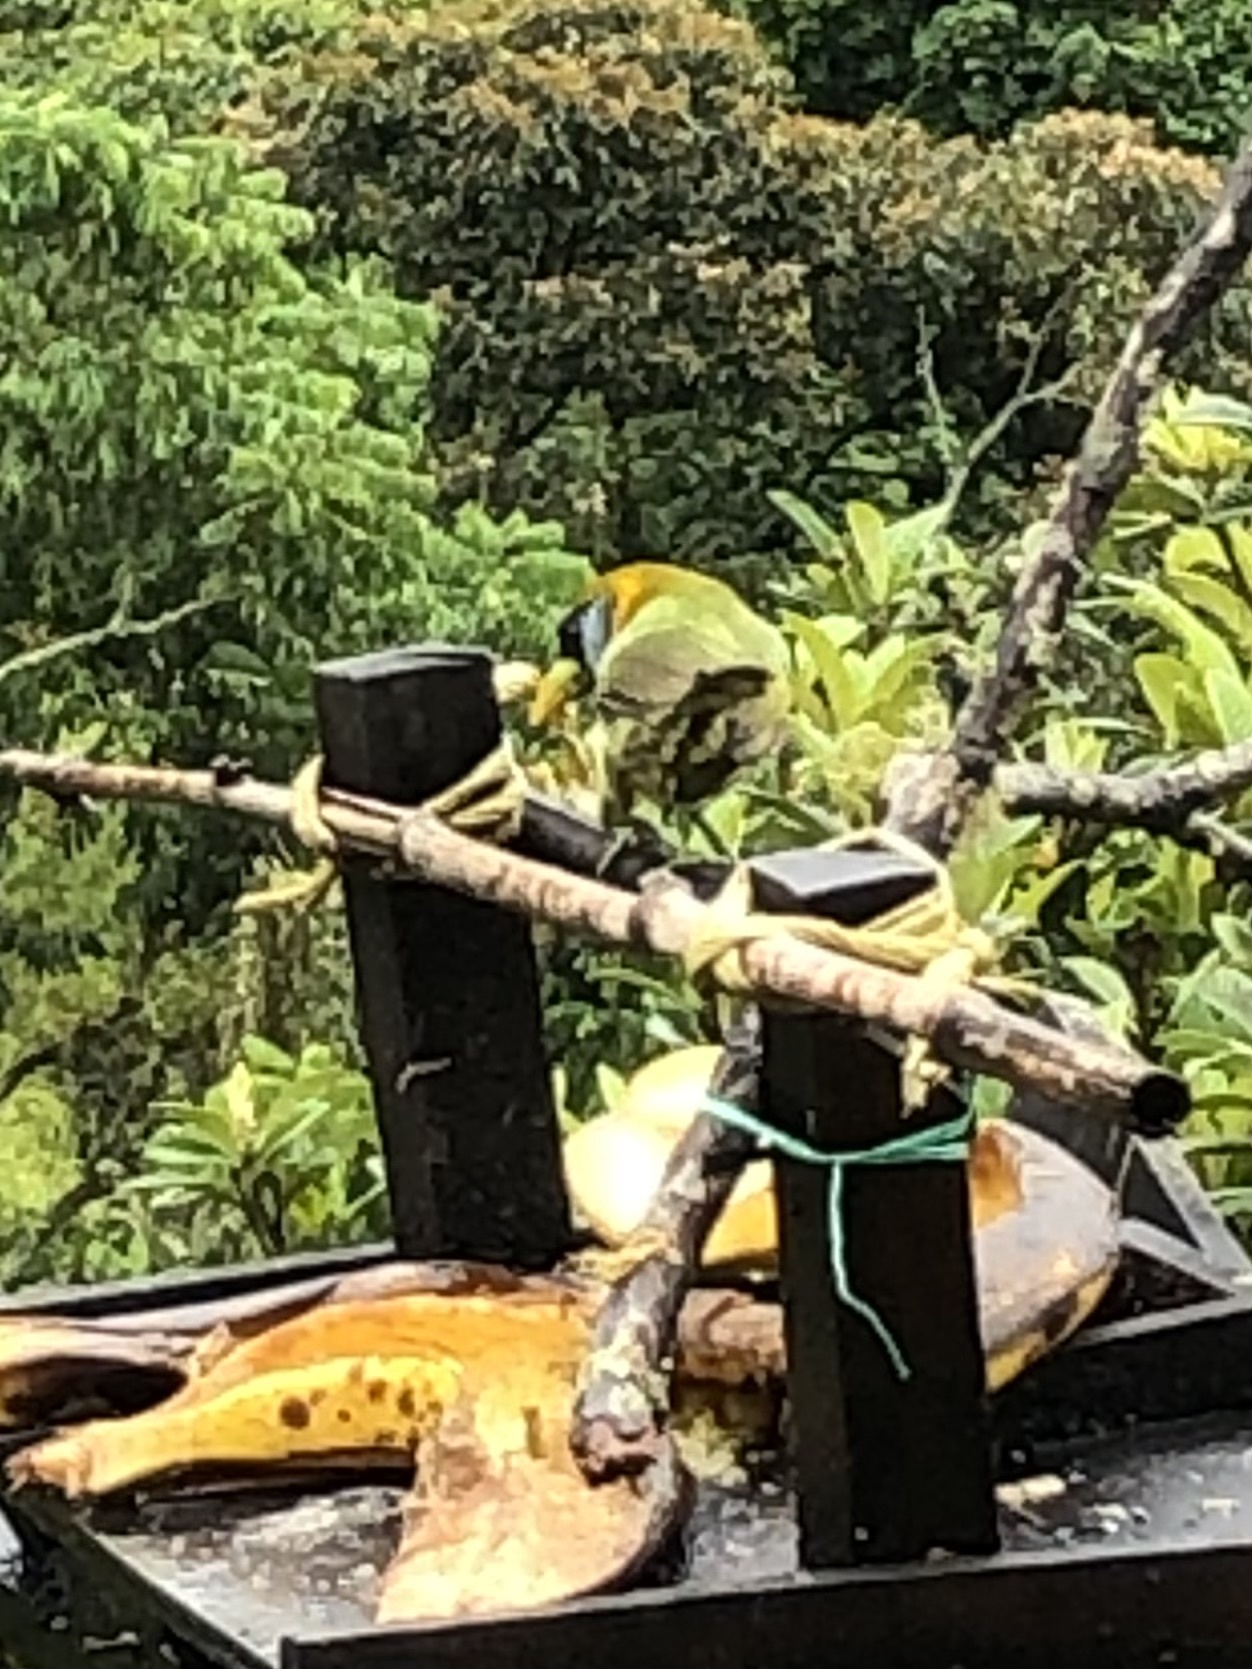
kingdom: Animalia
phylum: Chordata
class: Aves
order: Piciformes
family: Capitonidae
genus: Eubucco
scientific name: Eubucco bourcierii
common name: Red-headed barbet
